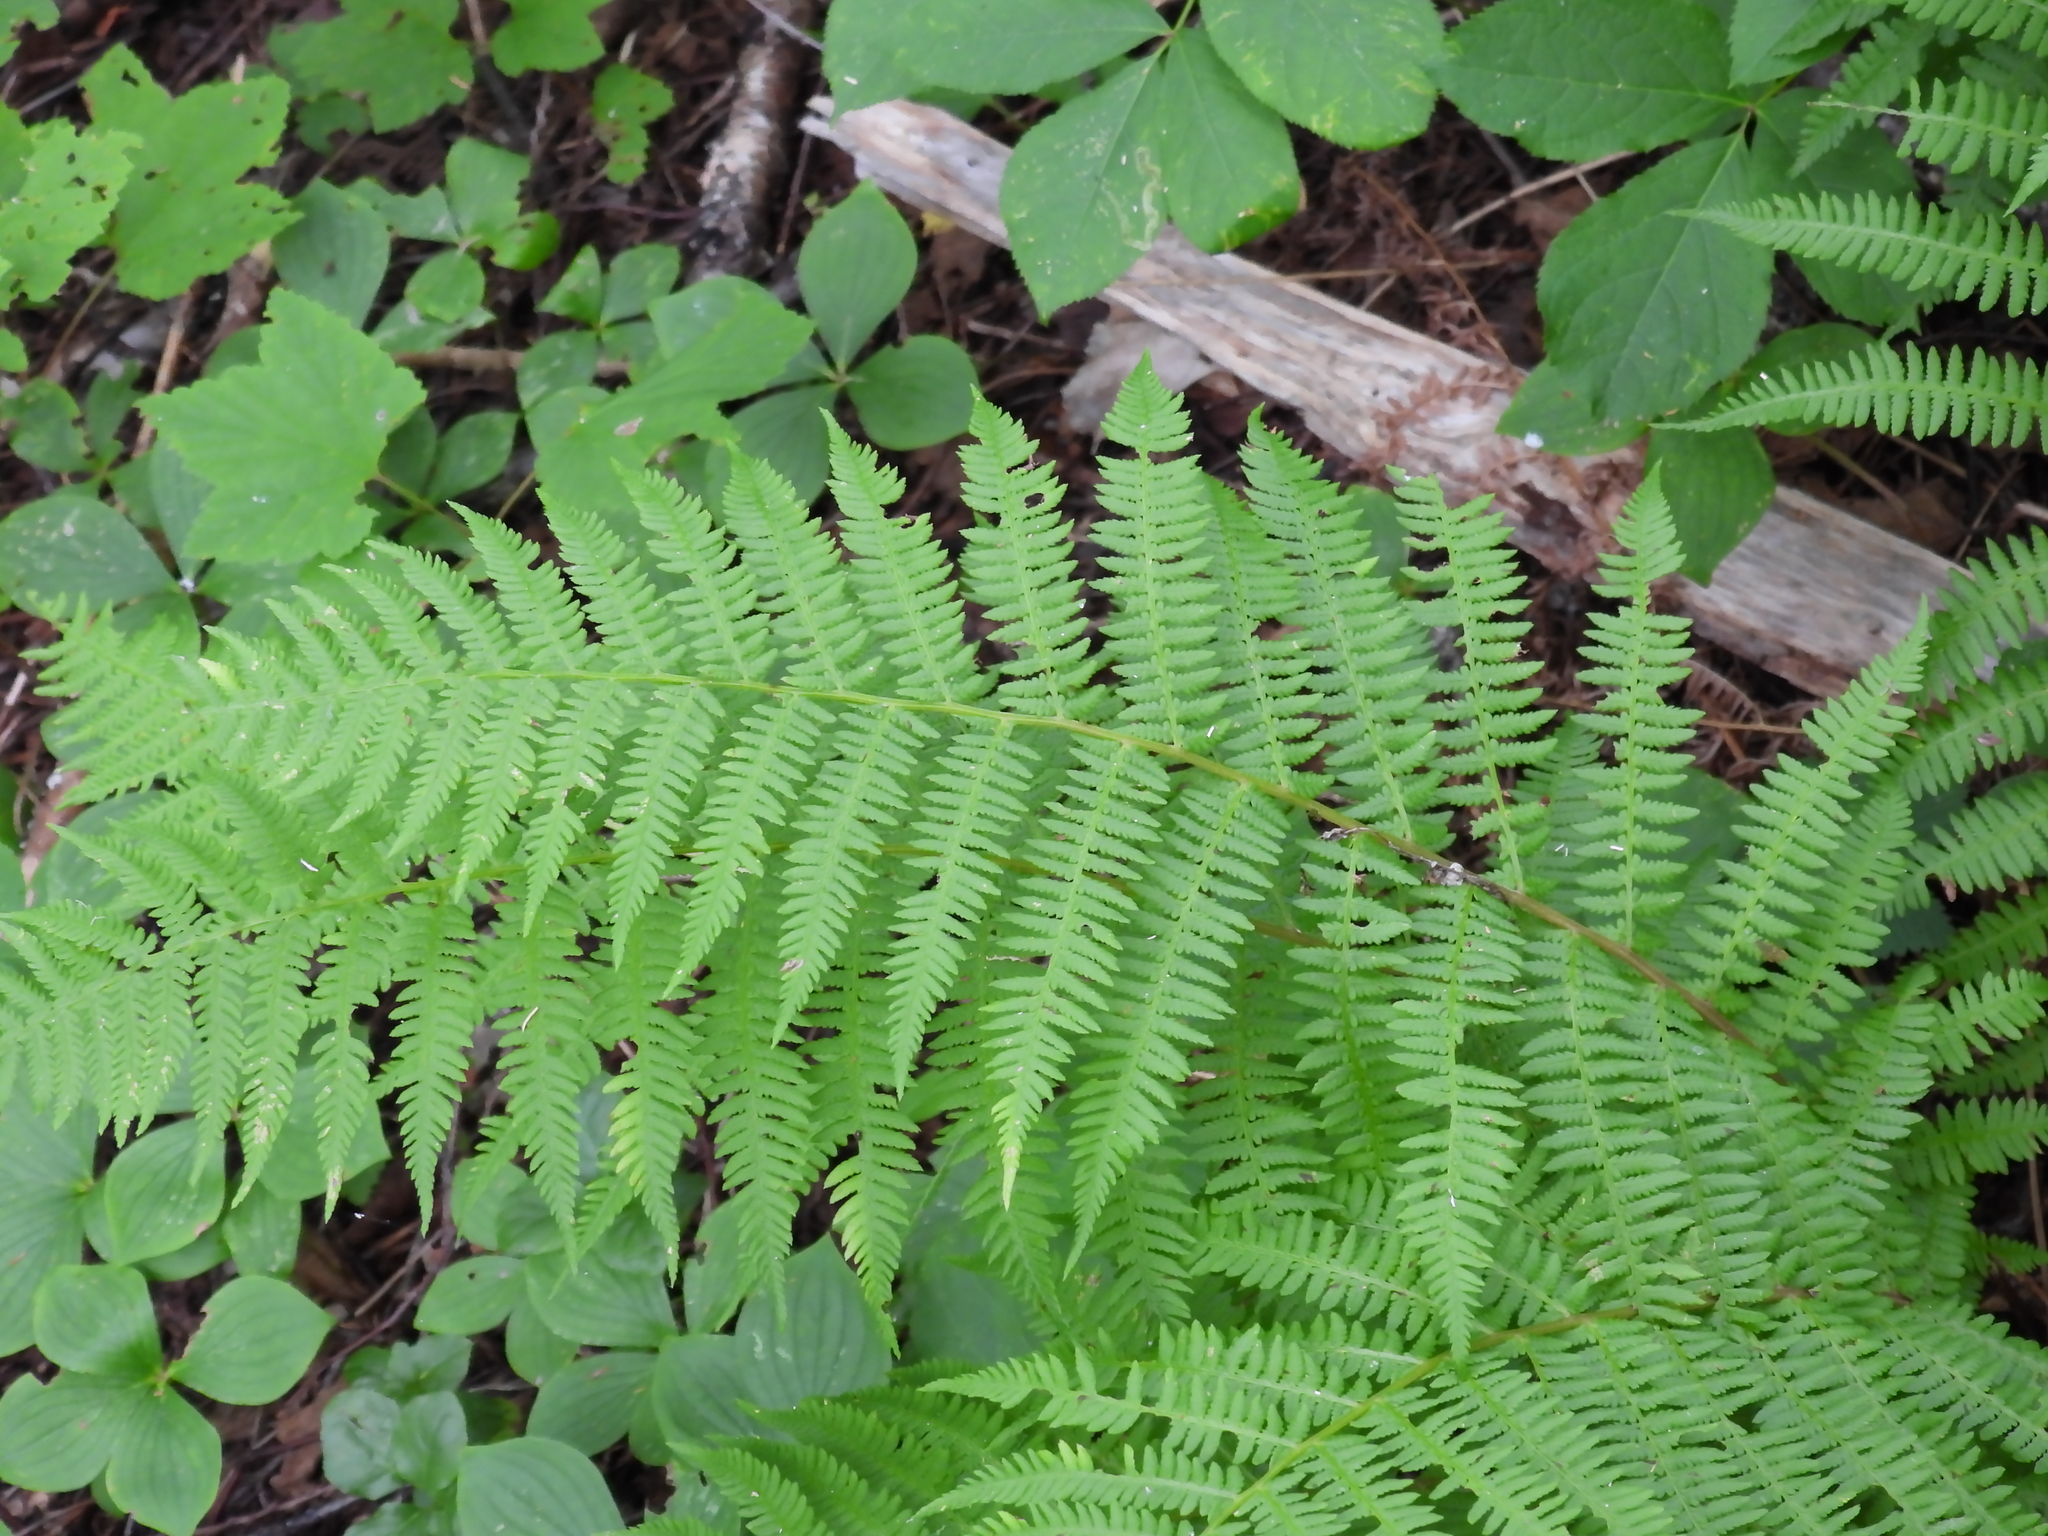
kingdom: Plantae
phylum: Tracheophyta
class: Polypodiopsida
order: Polypodiales
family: Athyriaceae
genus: Athyrium
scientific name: Athyrium angustum
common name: Northern lady fern
